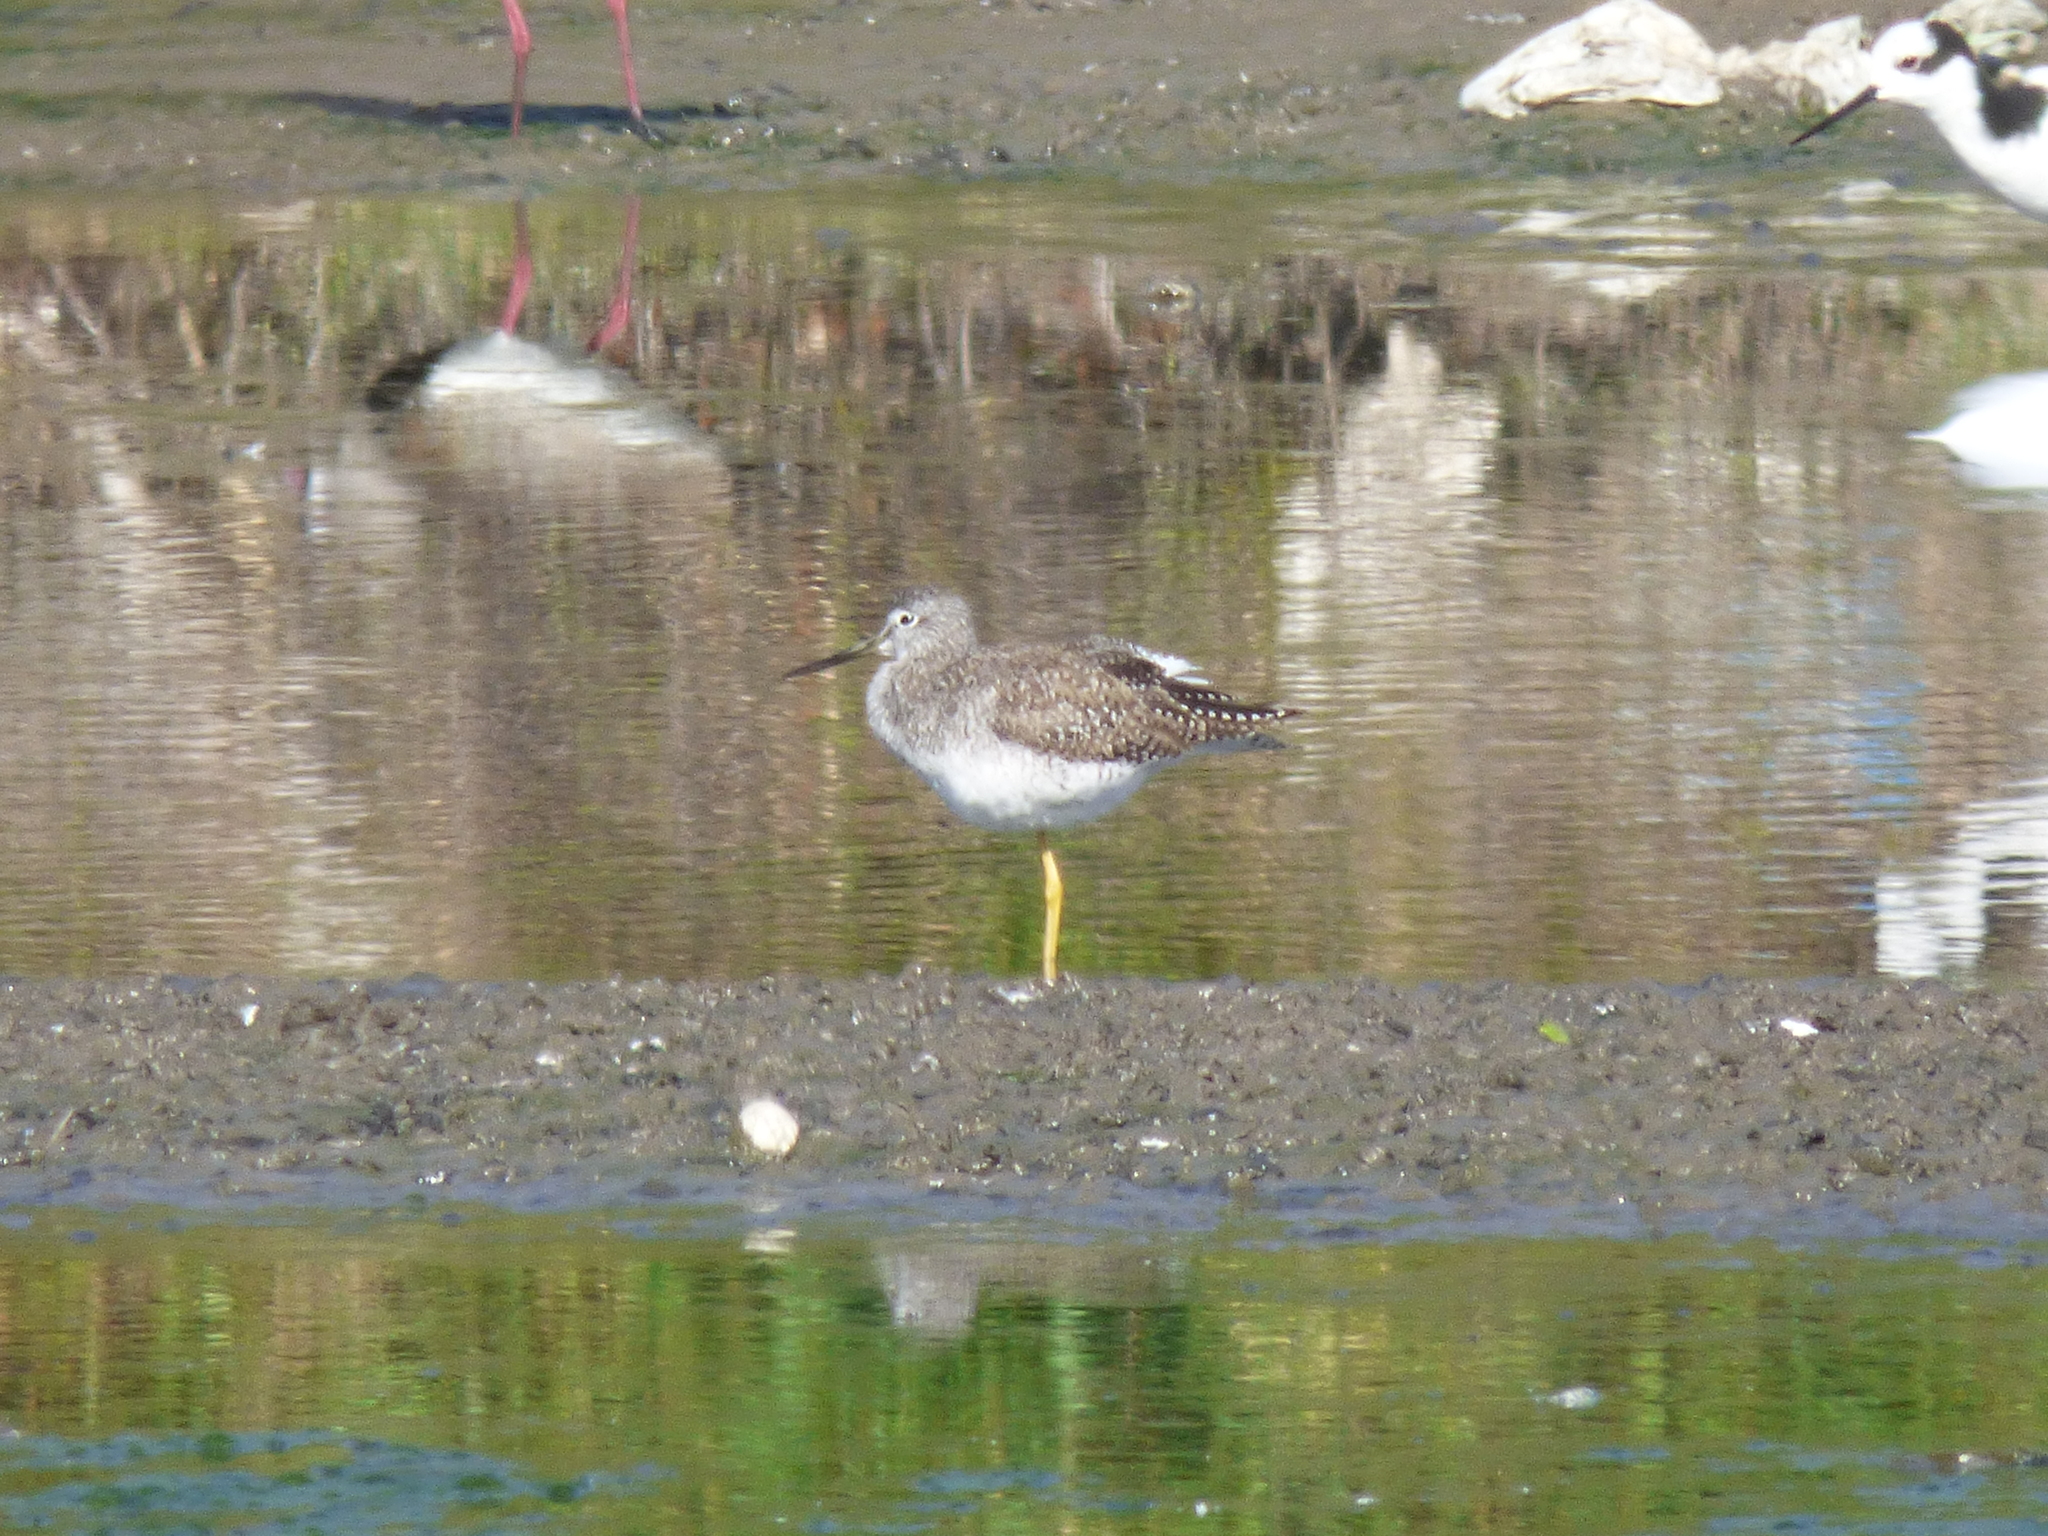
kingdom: Animalia
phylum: Chordata
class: Aves
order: Charadriiformes
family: Scolopacidae
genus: Tringa
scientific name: Tringa melanoleuca
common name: Greater yellowlegs
